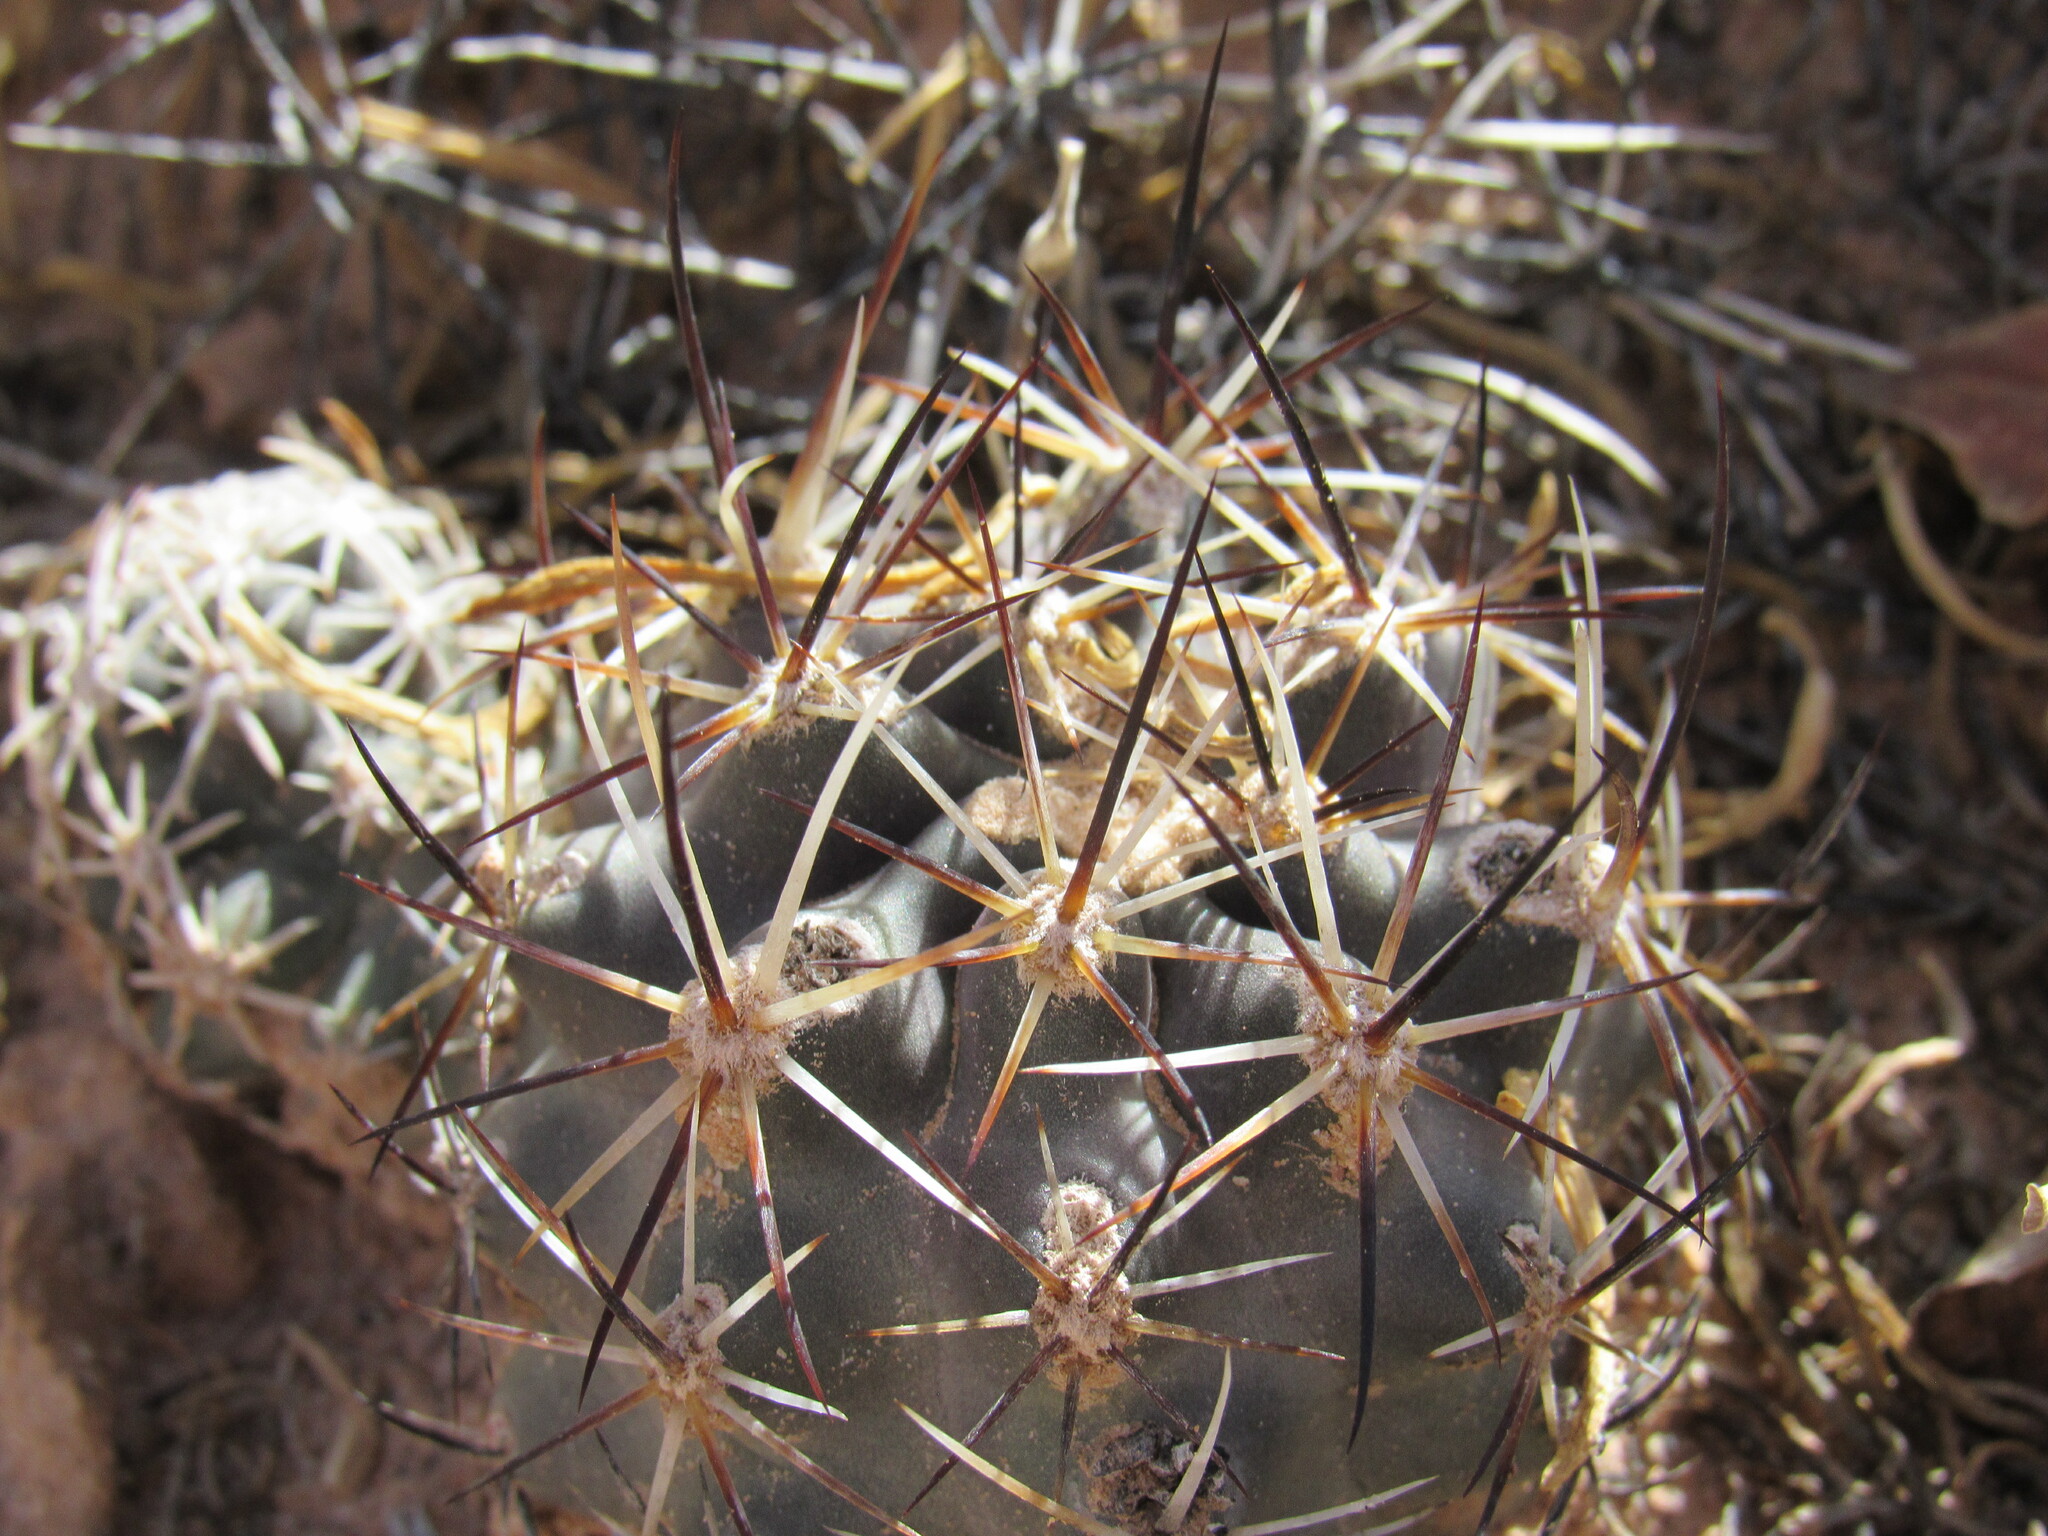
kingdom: Plantae
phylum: Tracheophyta
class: Magnoliopsida
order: Caryophyllales
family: Cactaceae
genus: Sclerocactus
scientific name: Sclerocactus glaucus
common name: Colorado hookless cactus
